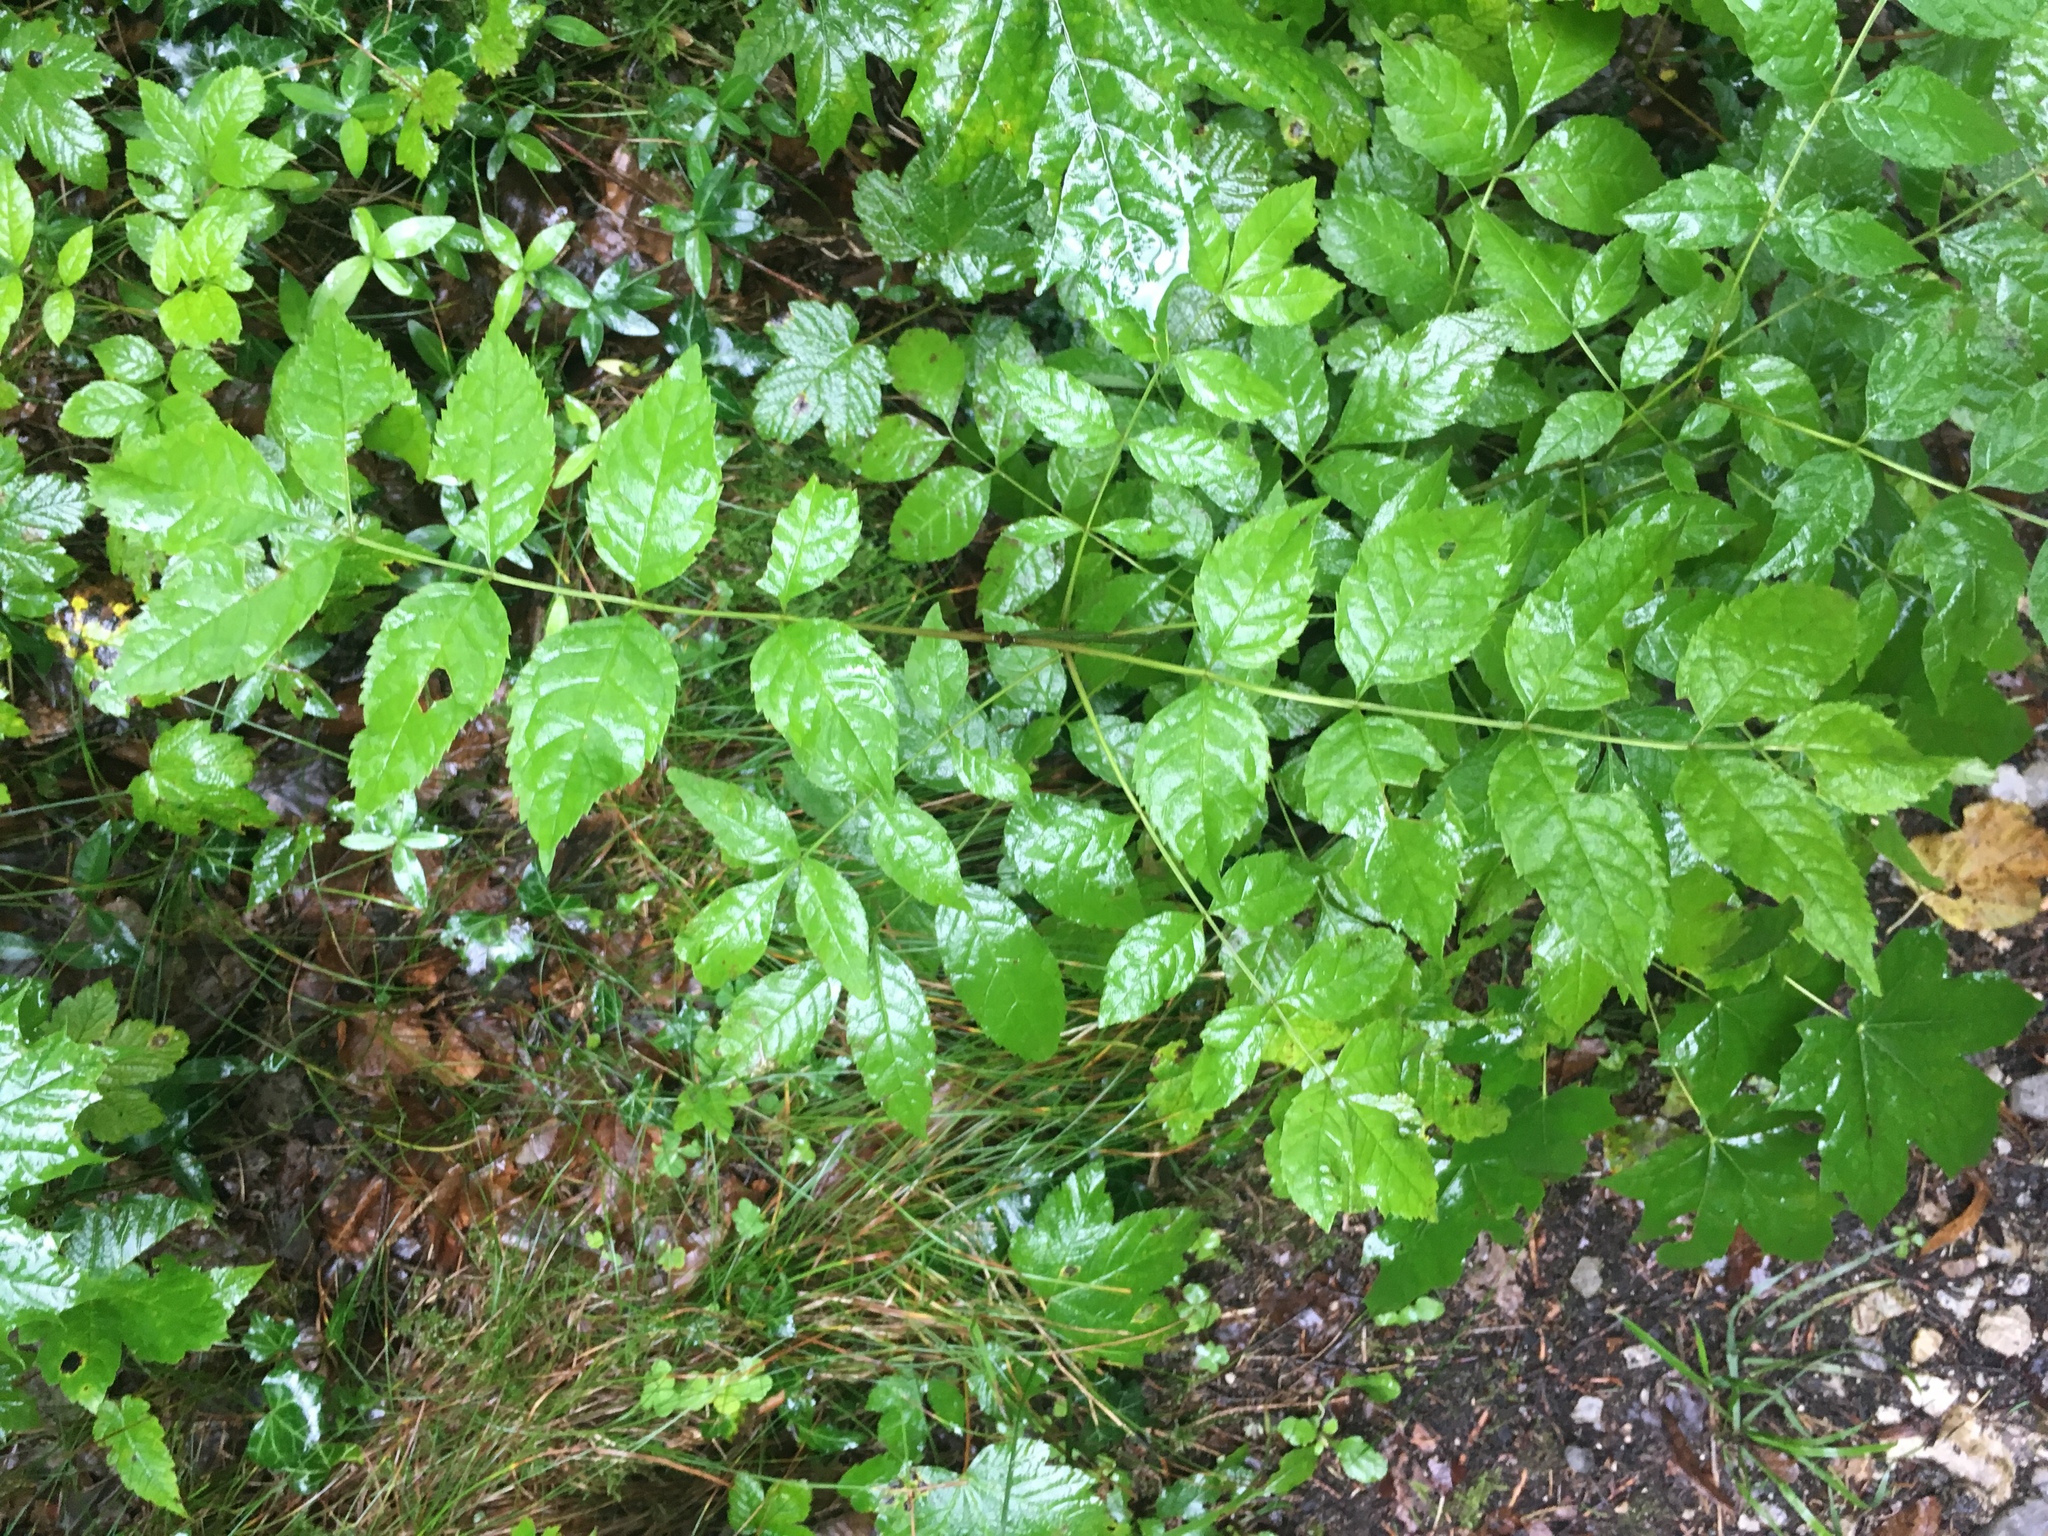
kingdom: Plantae
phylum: Tracheophyta
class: Magnoliopsida
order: Lamiales
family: Oleaceae
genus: Fraxinus
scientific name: Fraxinus excelsior
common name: European ash
